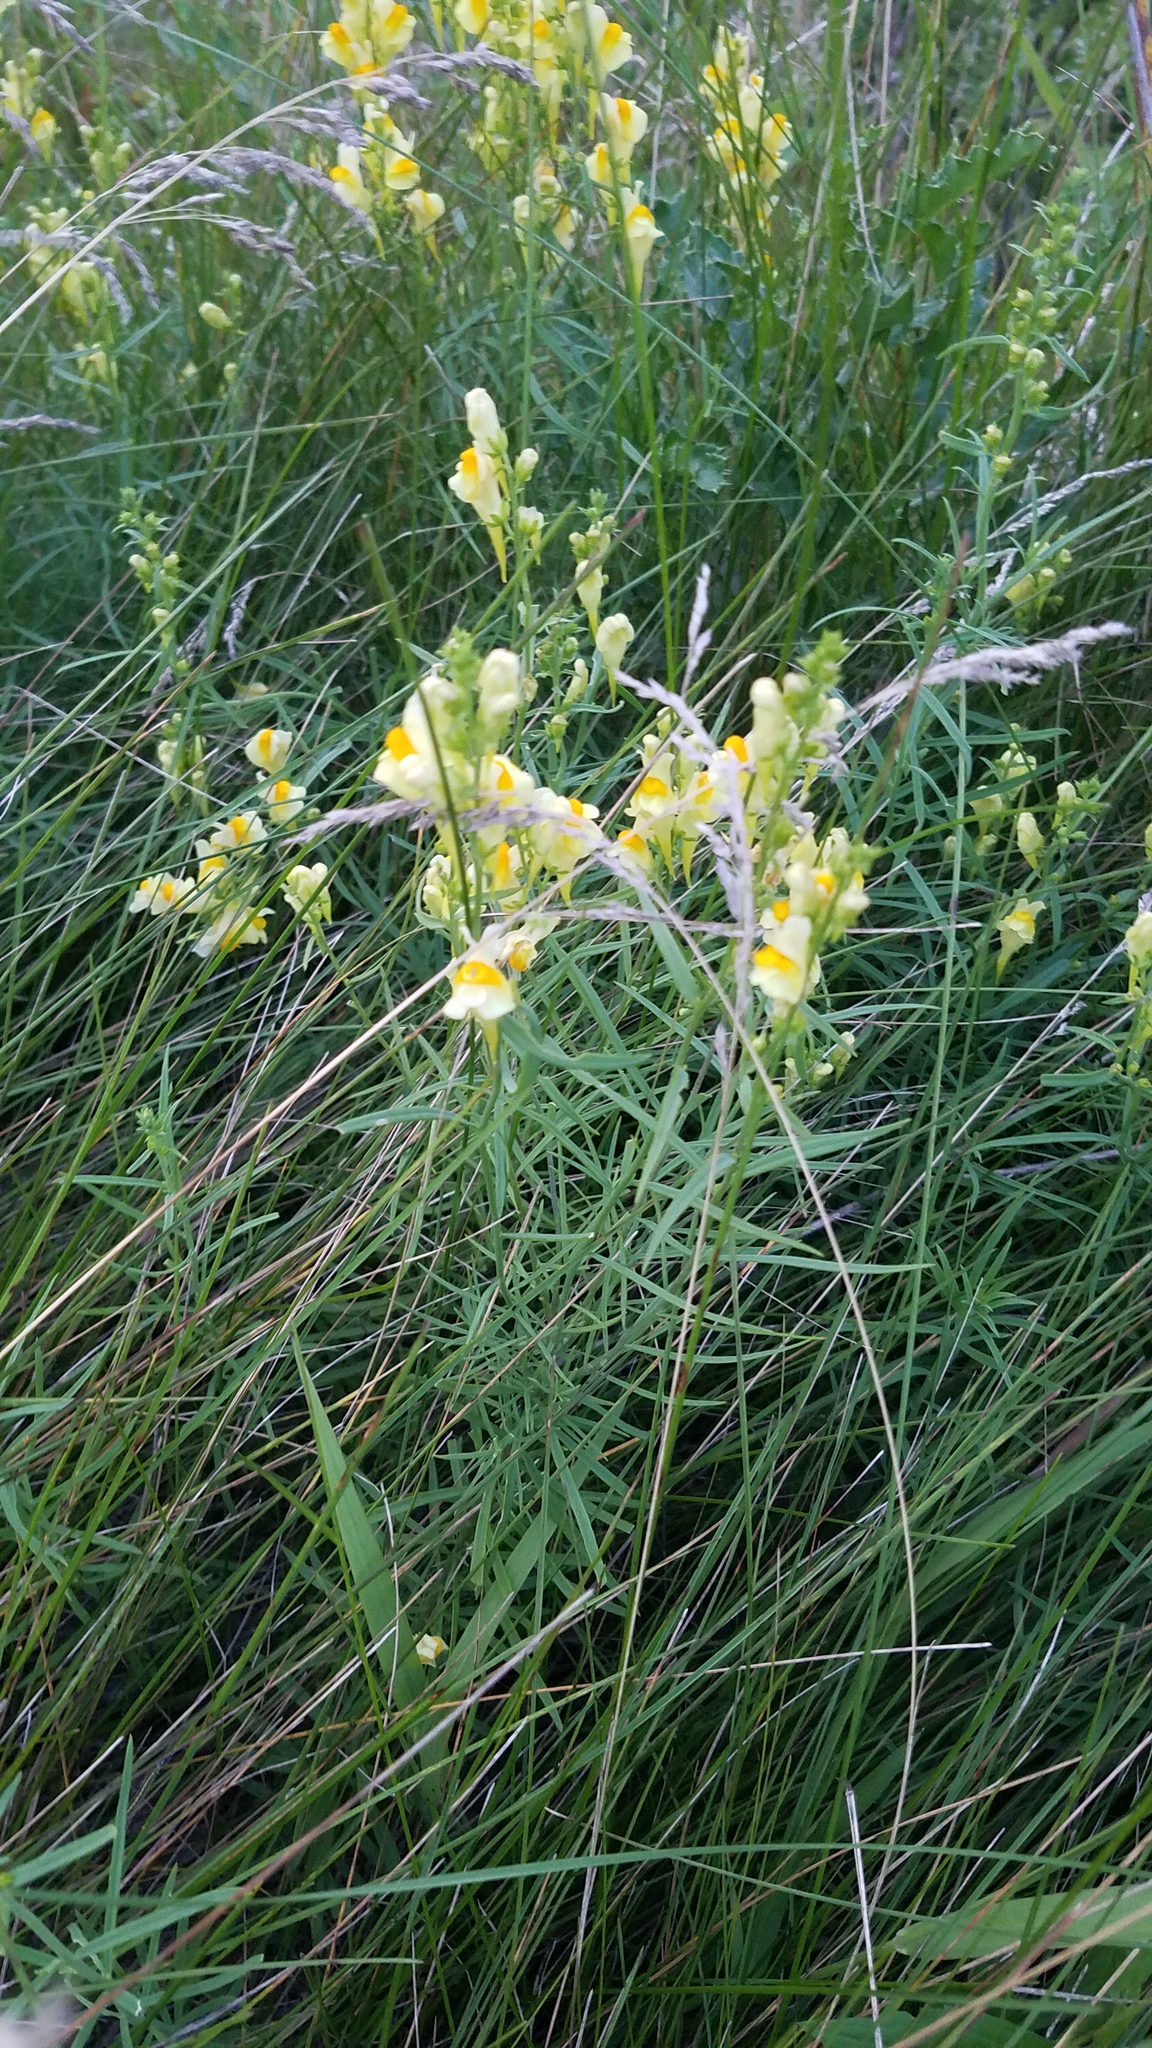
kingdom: Plantae
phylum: Tracheophyta
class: Magnoliopsida
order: Lamiales
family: Plantaginaceae
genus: Linaria
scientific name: Linaria vulgaris
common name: Butter and eggs
